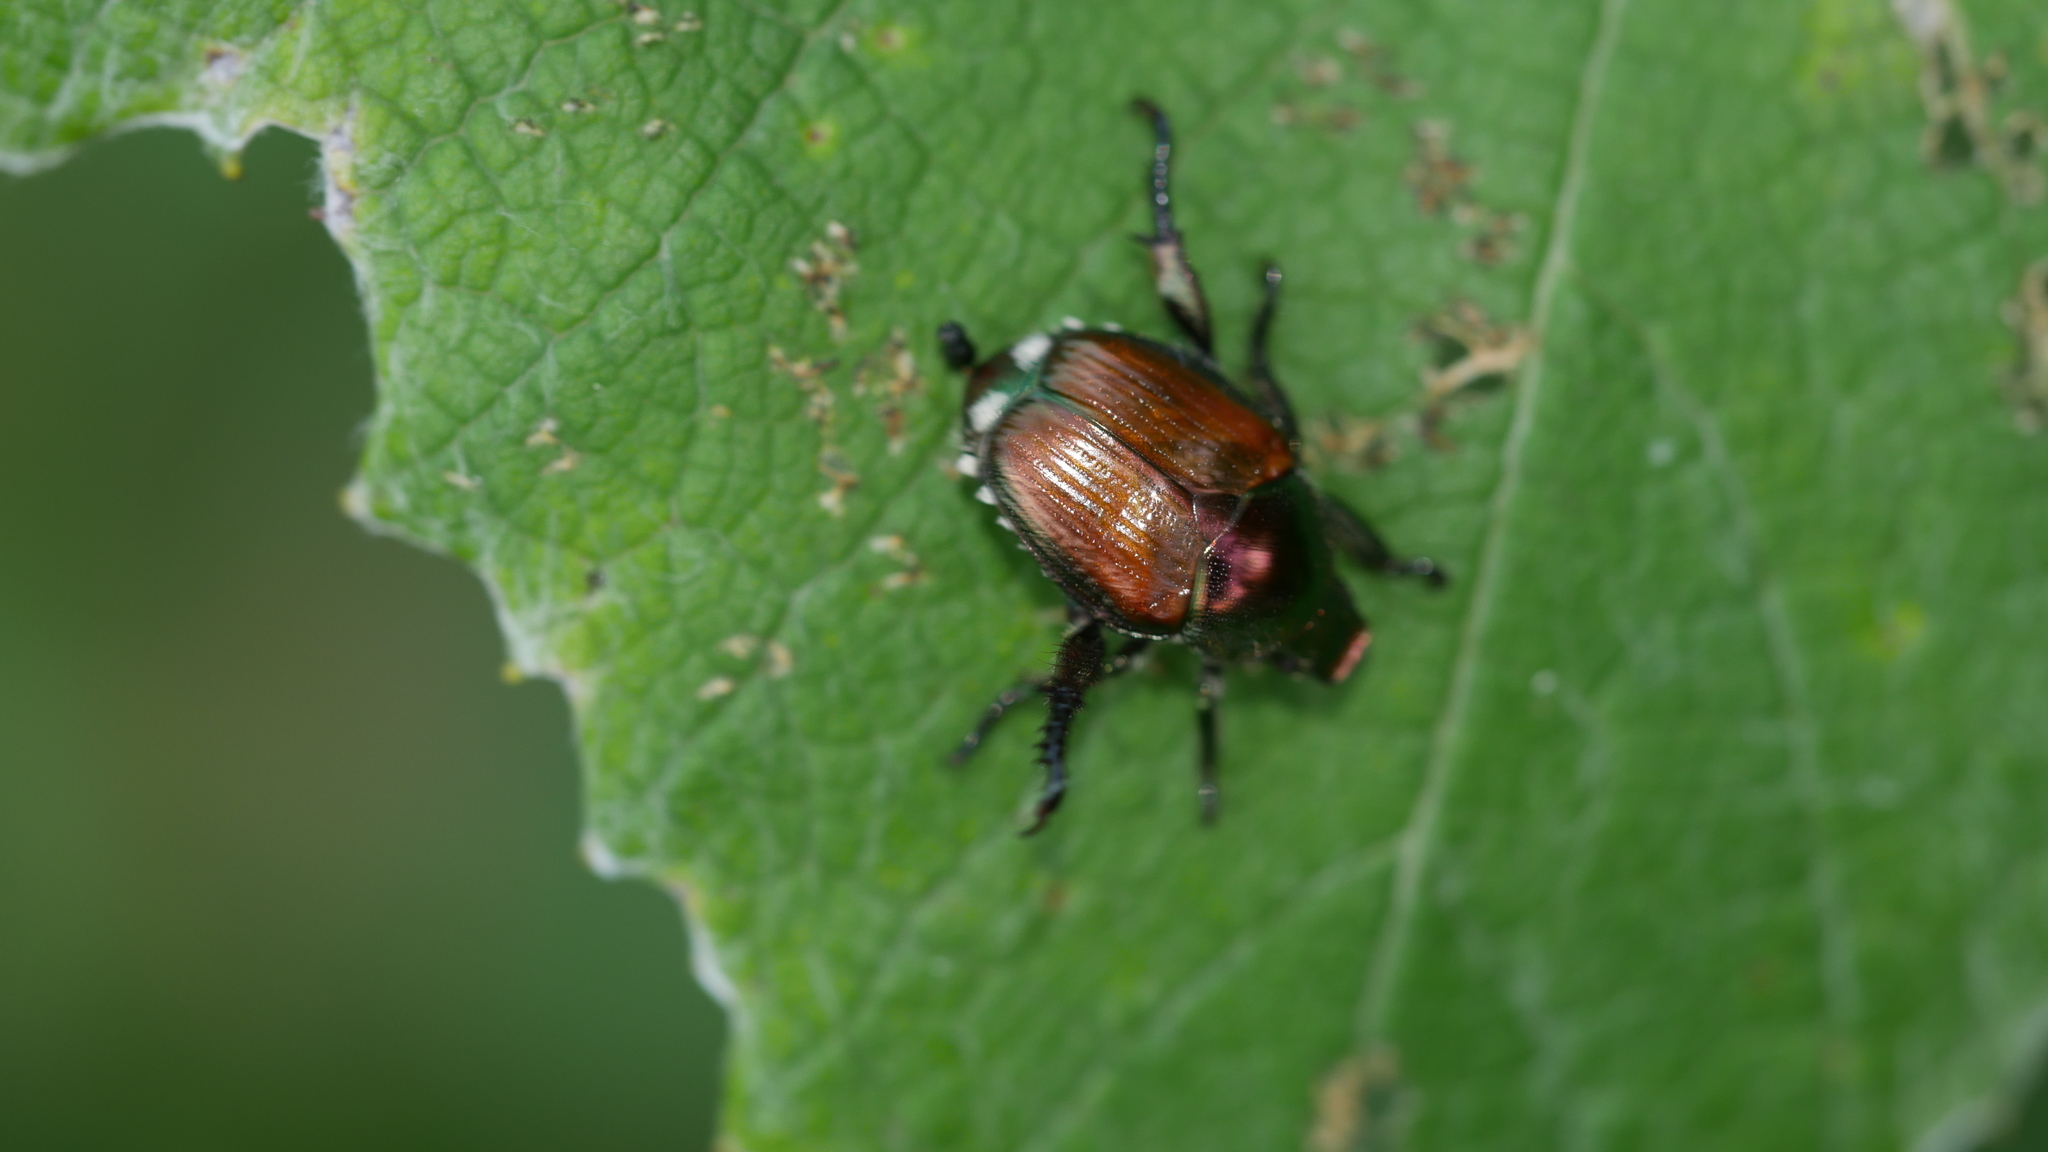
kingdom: Animalia
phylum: Arthropoda
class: Insecta
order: Coleoptera
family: Scarabaeidae
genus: Popillia
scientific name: Popillia japonica
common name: Japanese beetle
